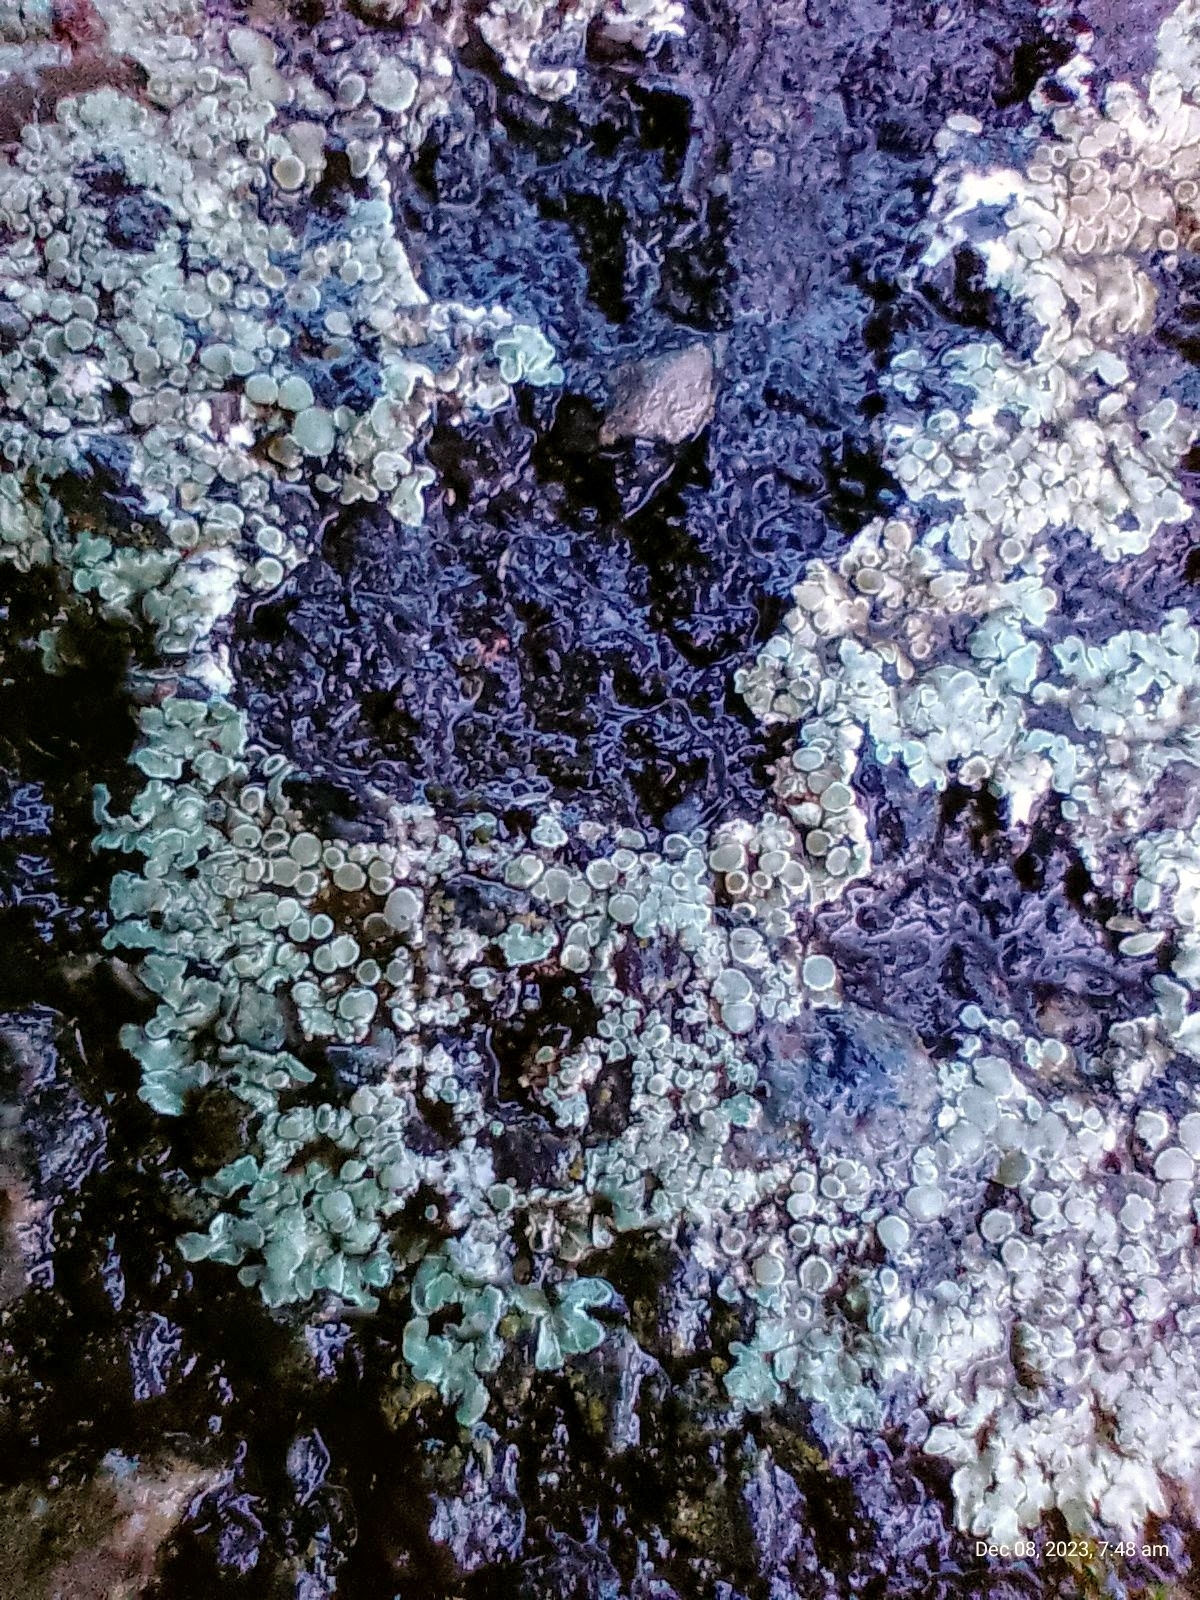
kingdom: Fungi
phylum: Ascomycota
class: Lecanoromycetes
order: Lecanorales
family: Lecanoraceae
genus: Protoparmeliopsis
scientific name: Protoparmeliopsis muralis
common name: Stonewall rim lichen
